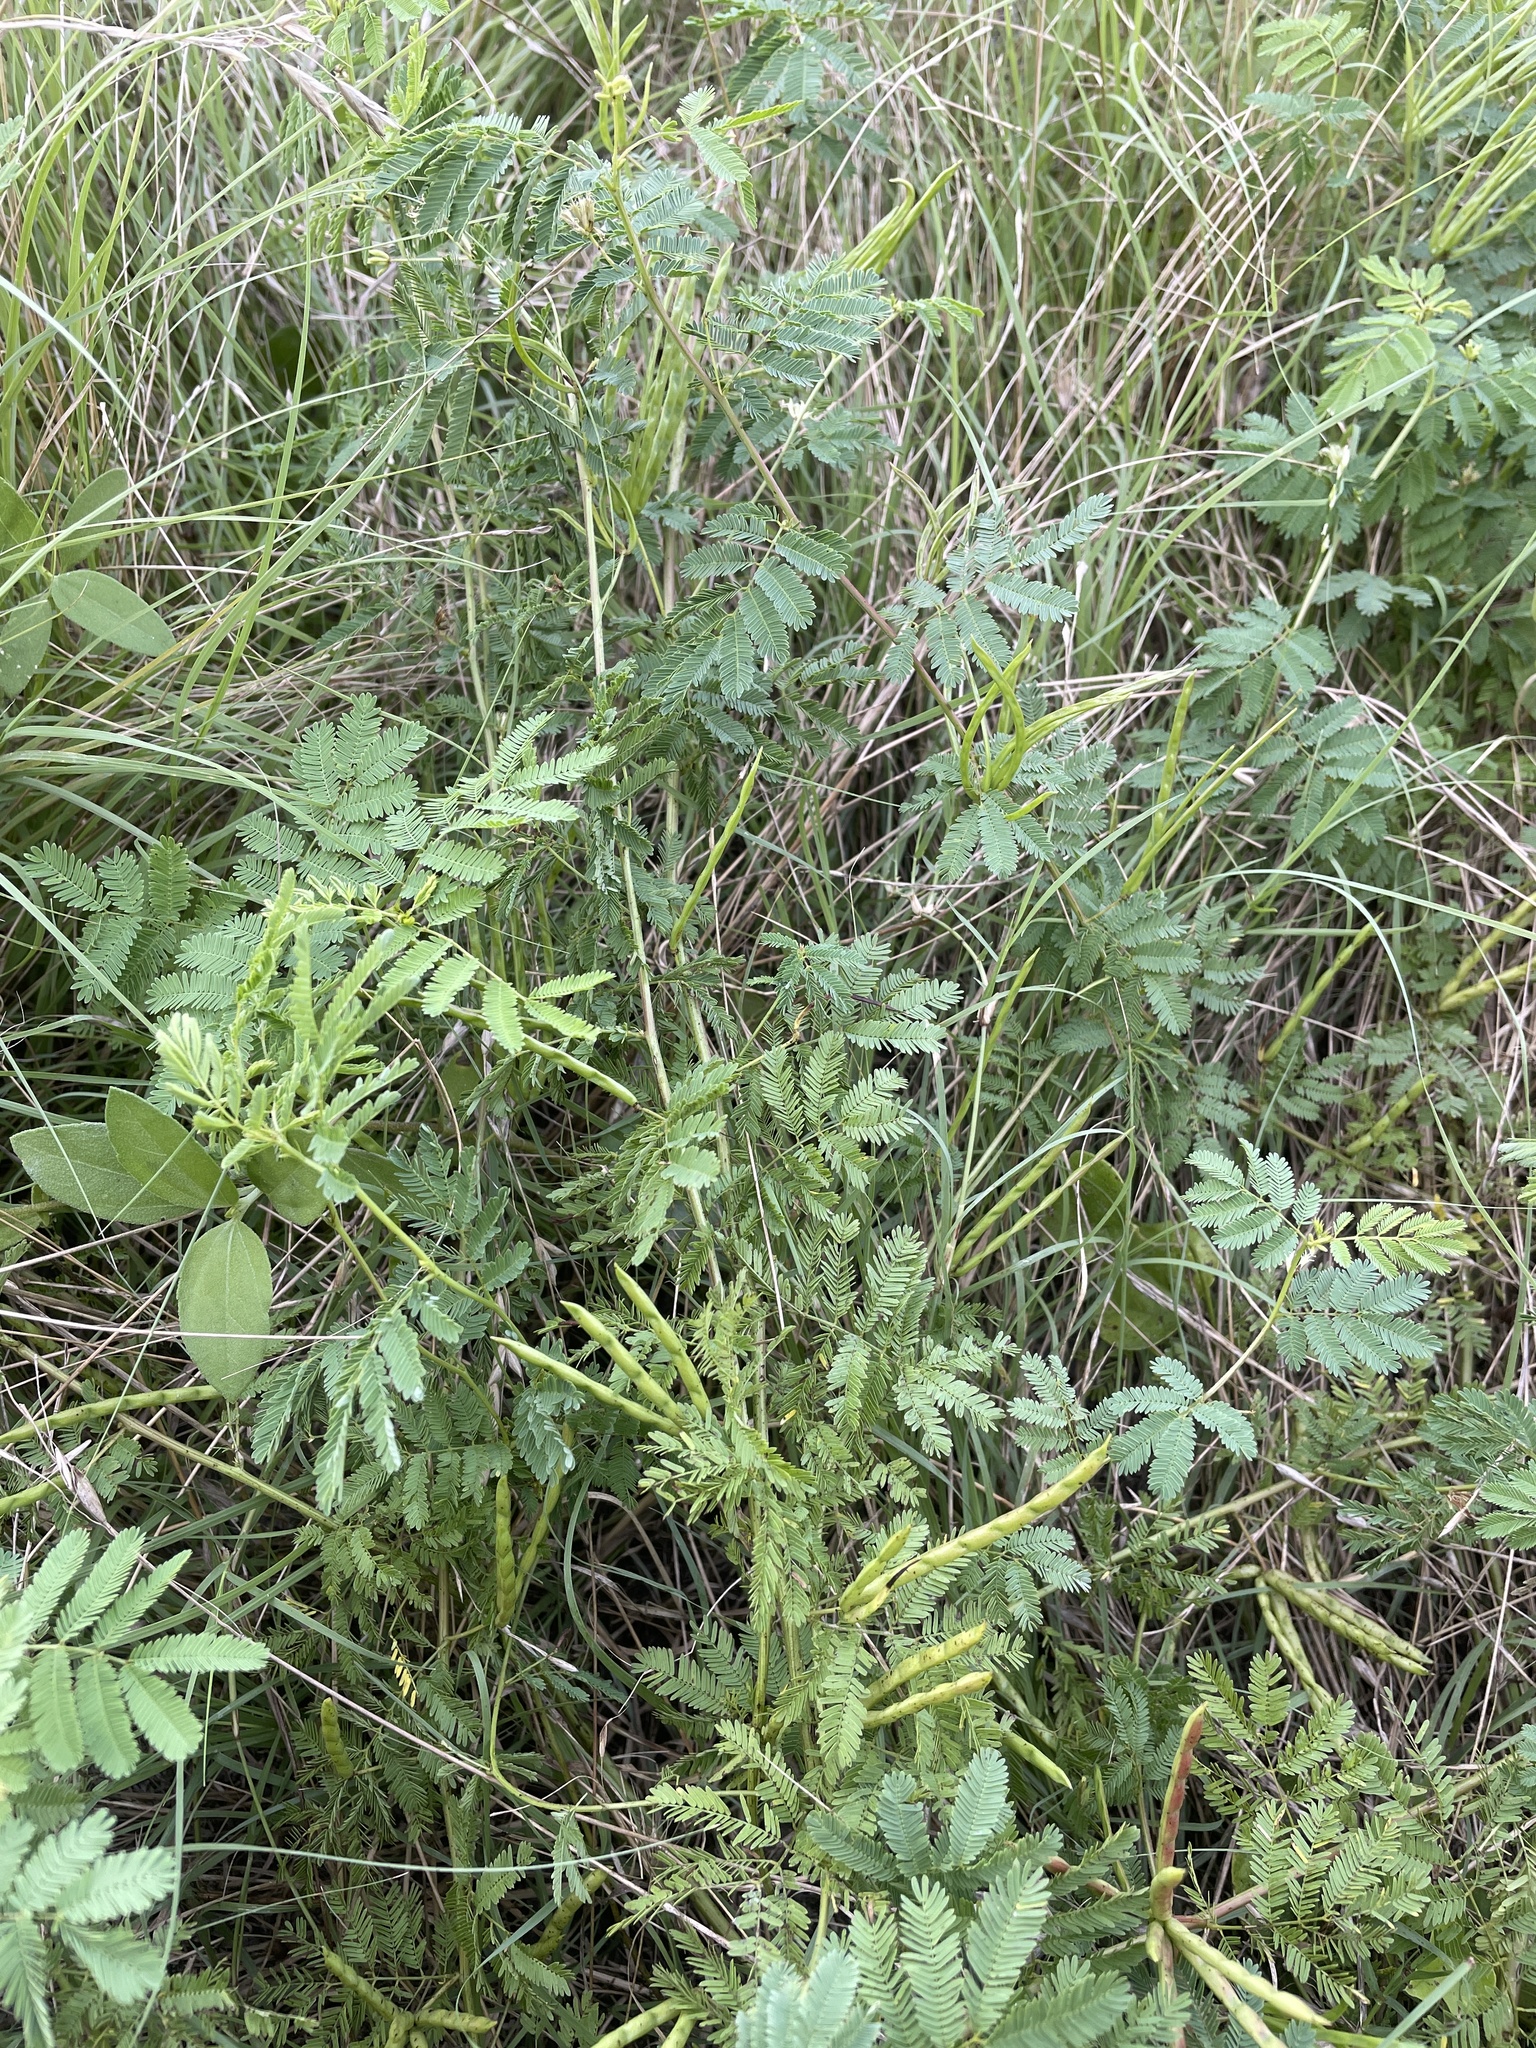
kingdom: Plantae
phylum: Tracheophyta
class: Magnoliopsida
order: Fabales
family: Fabaceae
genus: Desmanthus
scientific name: Desmanthus leptolobus
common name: Prairie-mimosa
